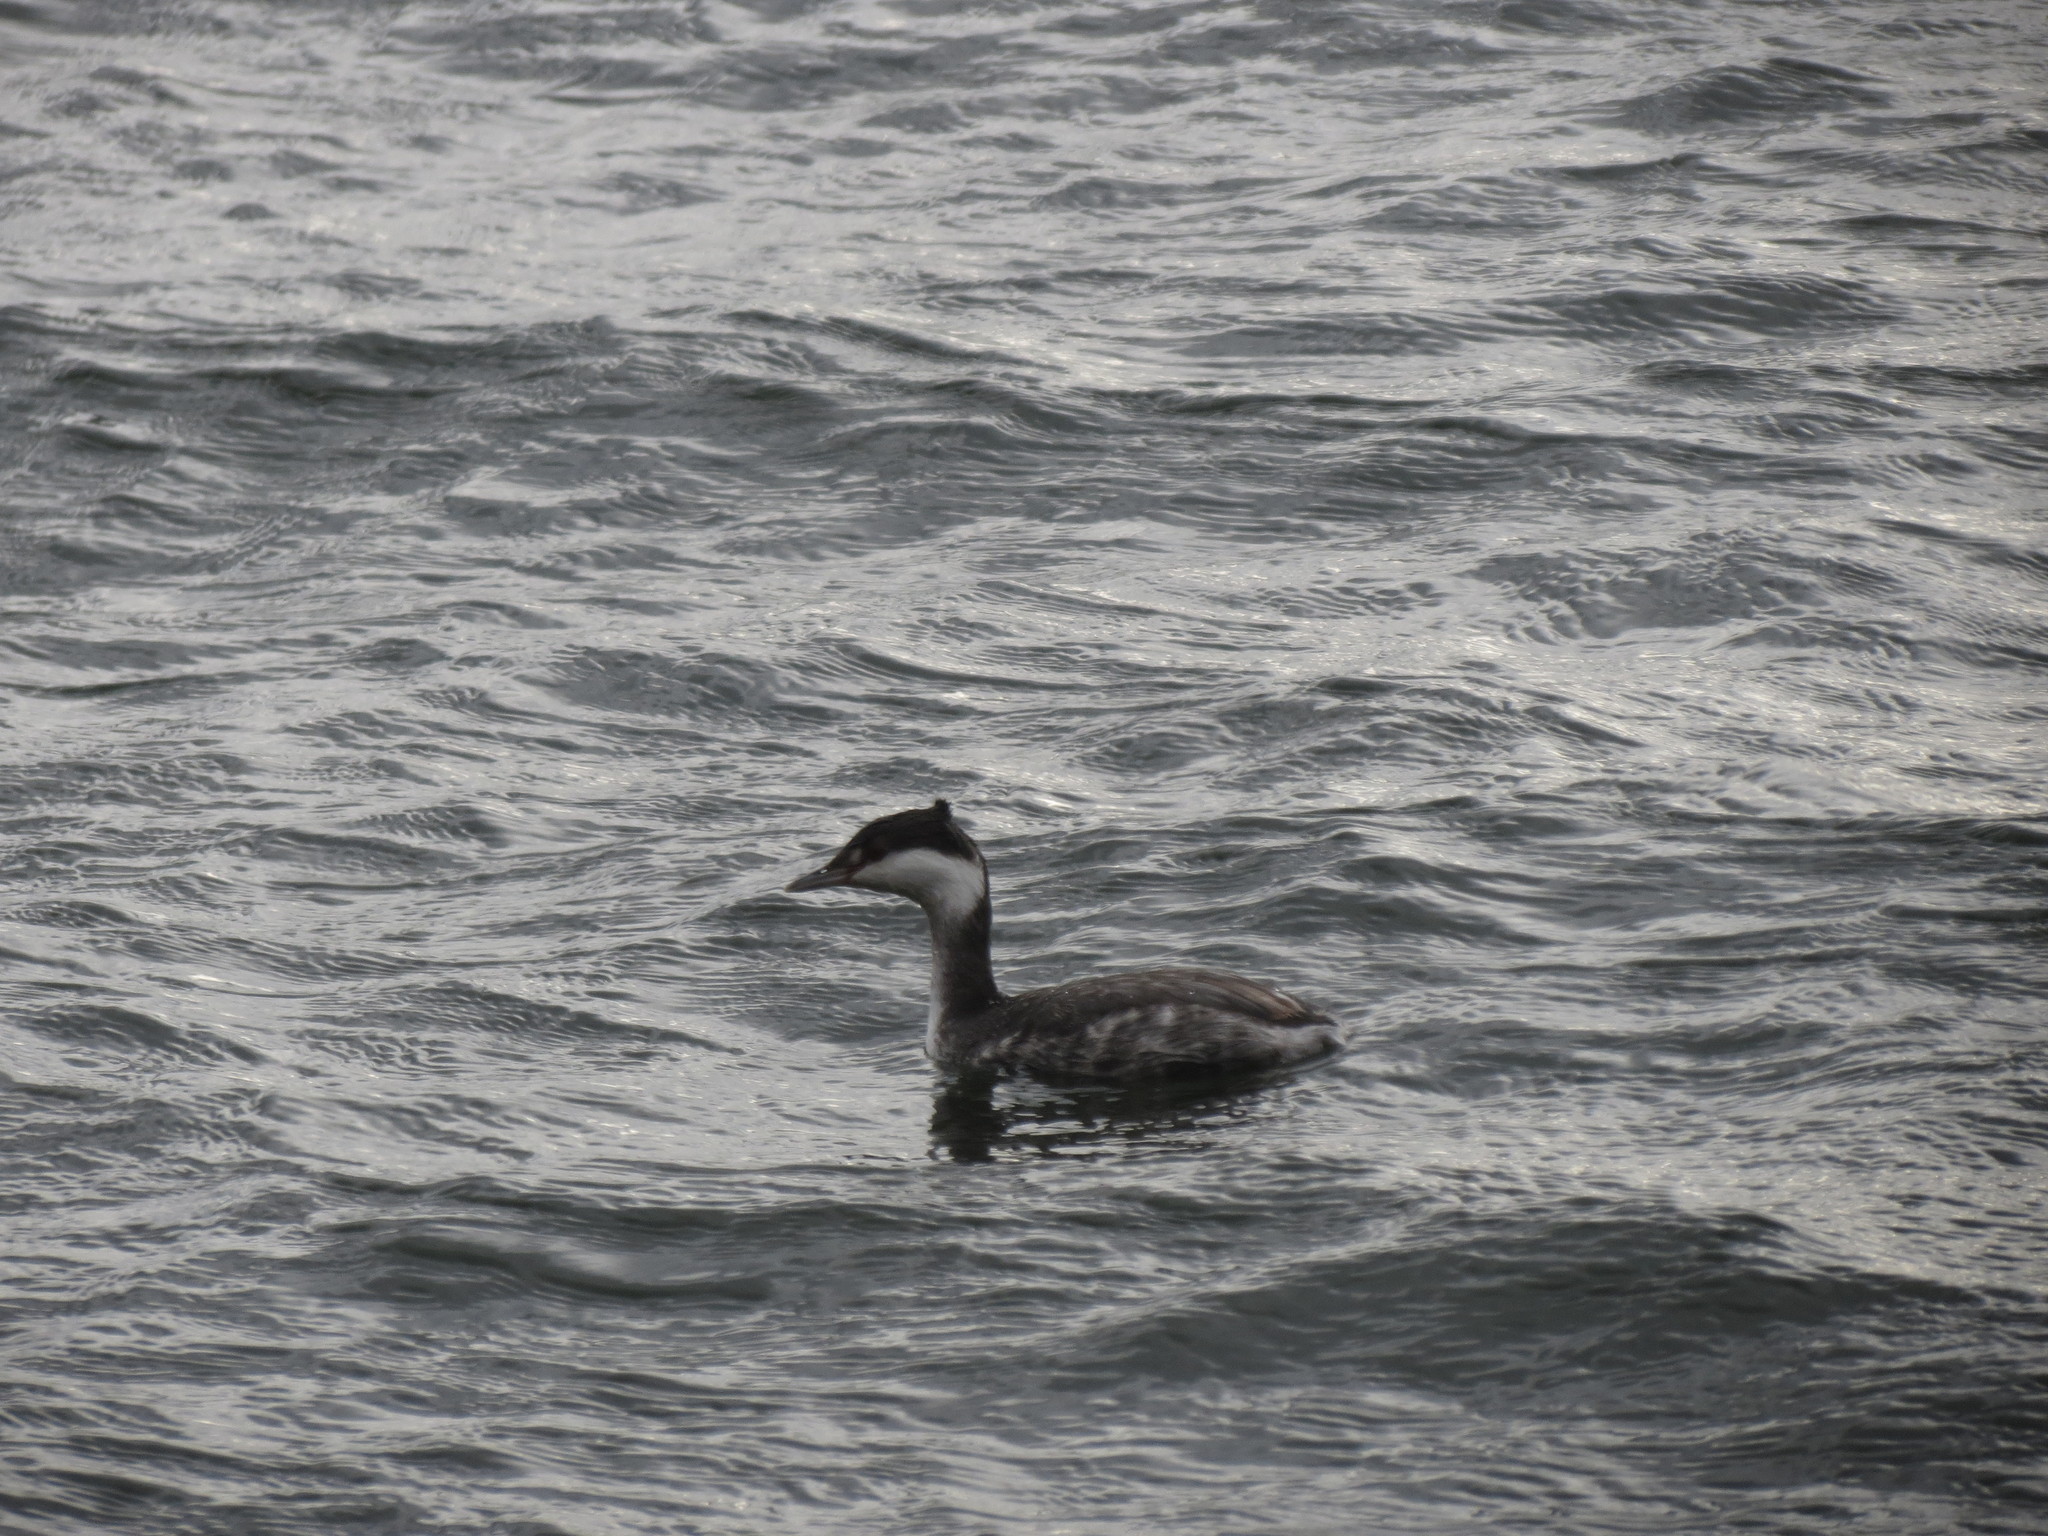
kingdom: Animalia
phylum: Chordata
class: Aves
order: Podicipediformes
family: Podicipedidae
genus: Podiceps
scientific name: Podiceps auritus
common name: Horned grebe
